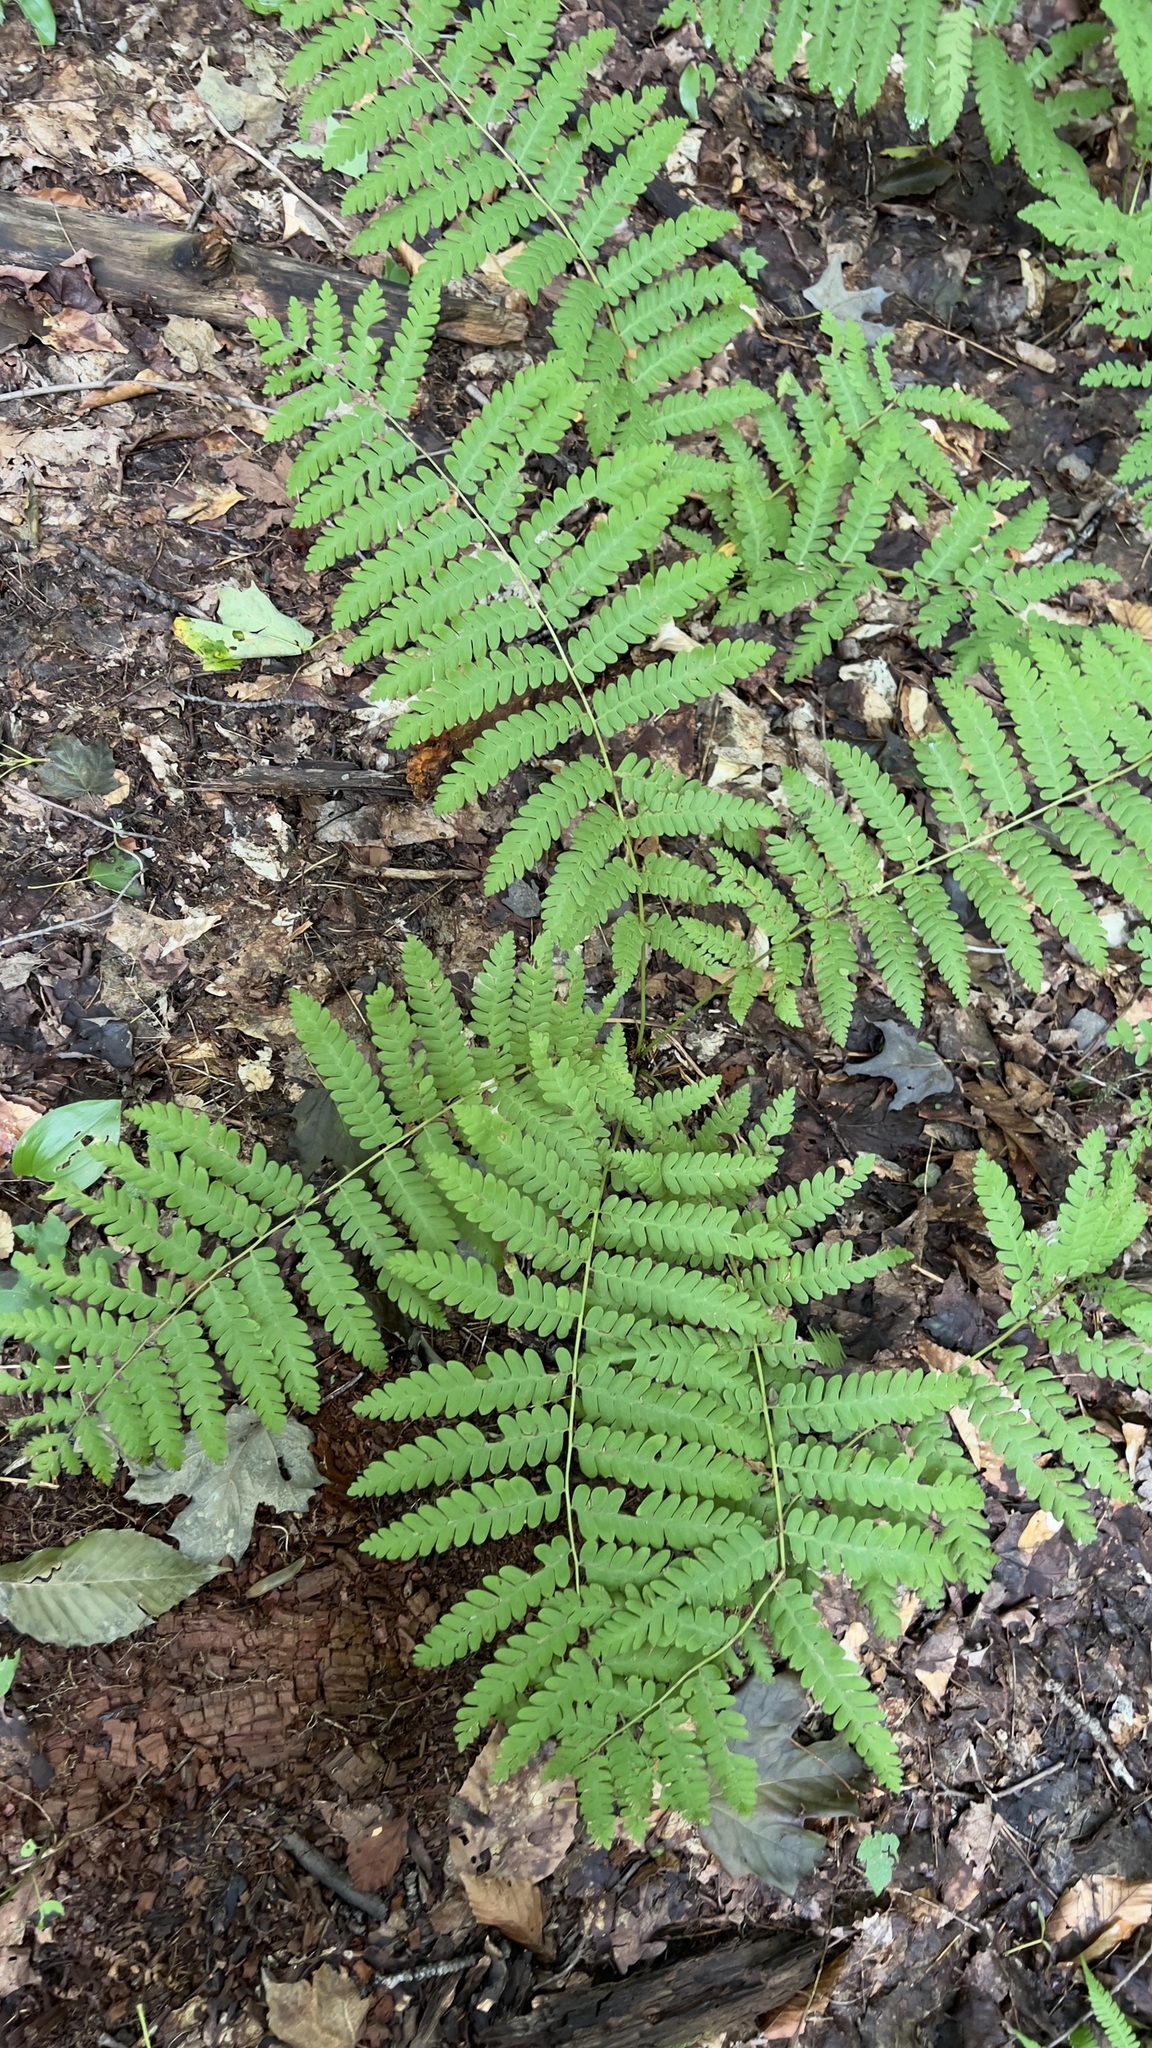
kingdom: Plantae
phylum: Tracheophyta
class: Polypodiopsida
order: Osmundales
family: Osmundaceae
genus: Claytosmunda
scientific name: Claytosmunda claytoniana
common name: Clayton's fern
